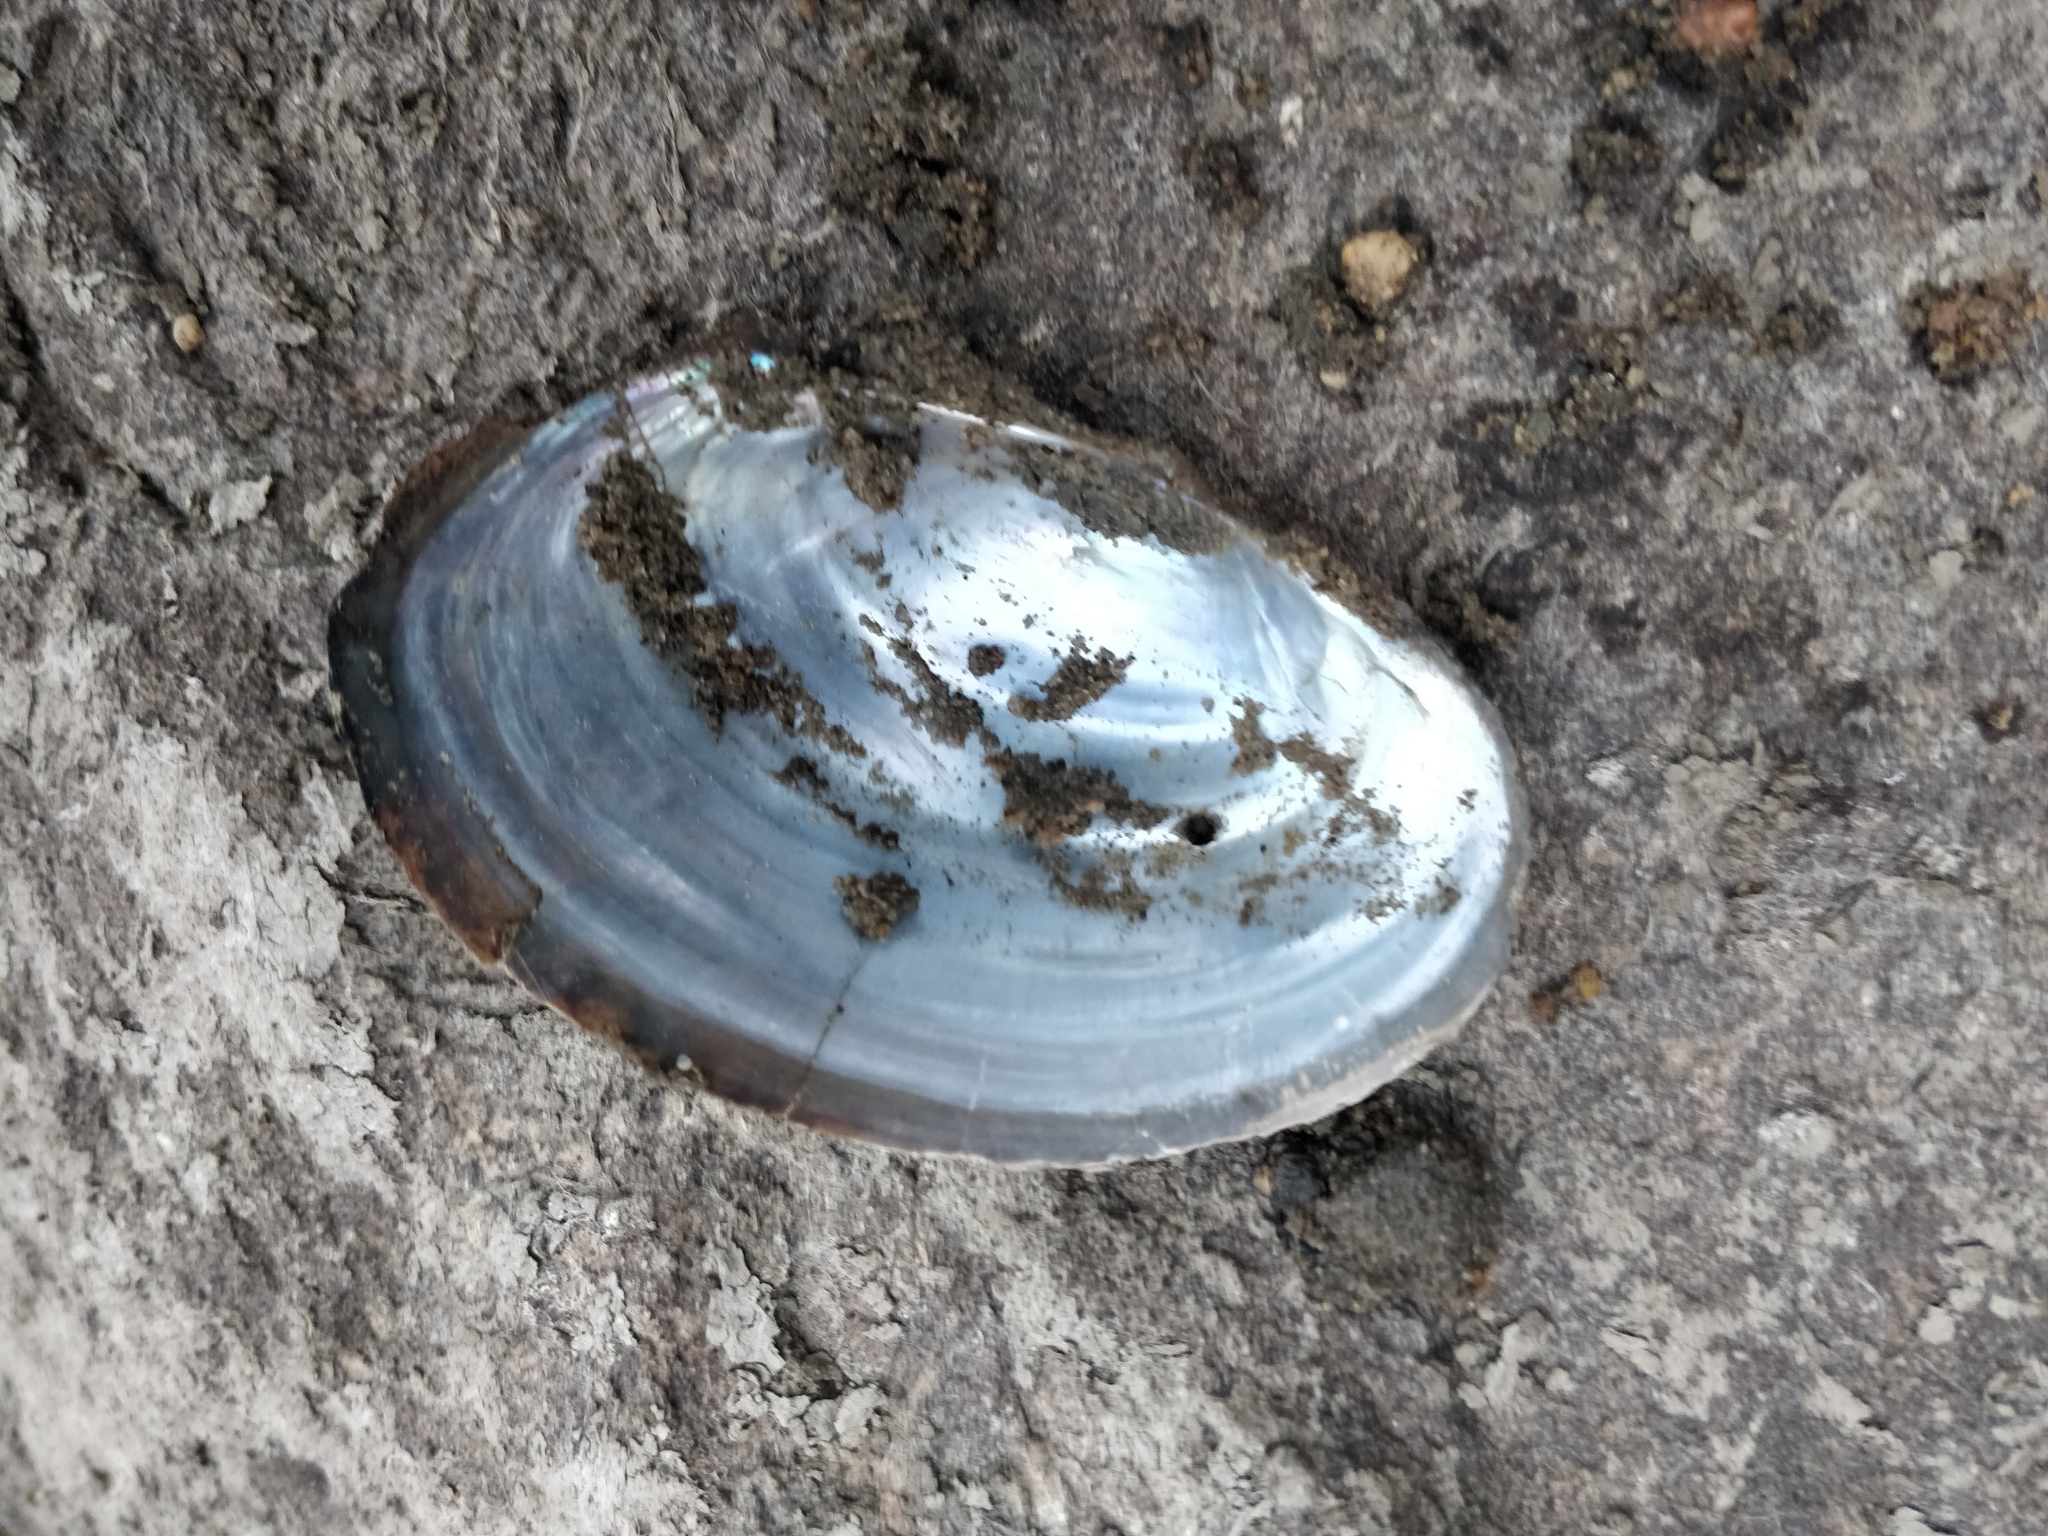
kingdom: Animalia
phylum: Mollusca
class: Bivalvia
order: Unionida
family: Unionidae
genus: Pyganodon
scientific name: Pyganodon grandis
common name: Giant floater
